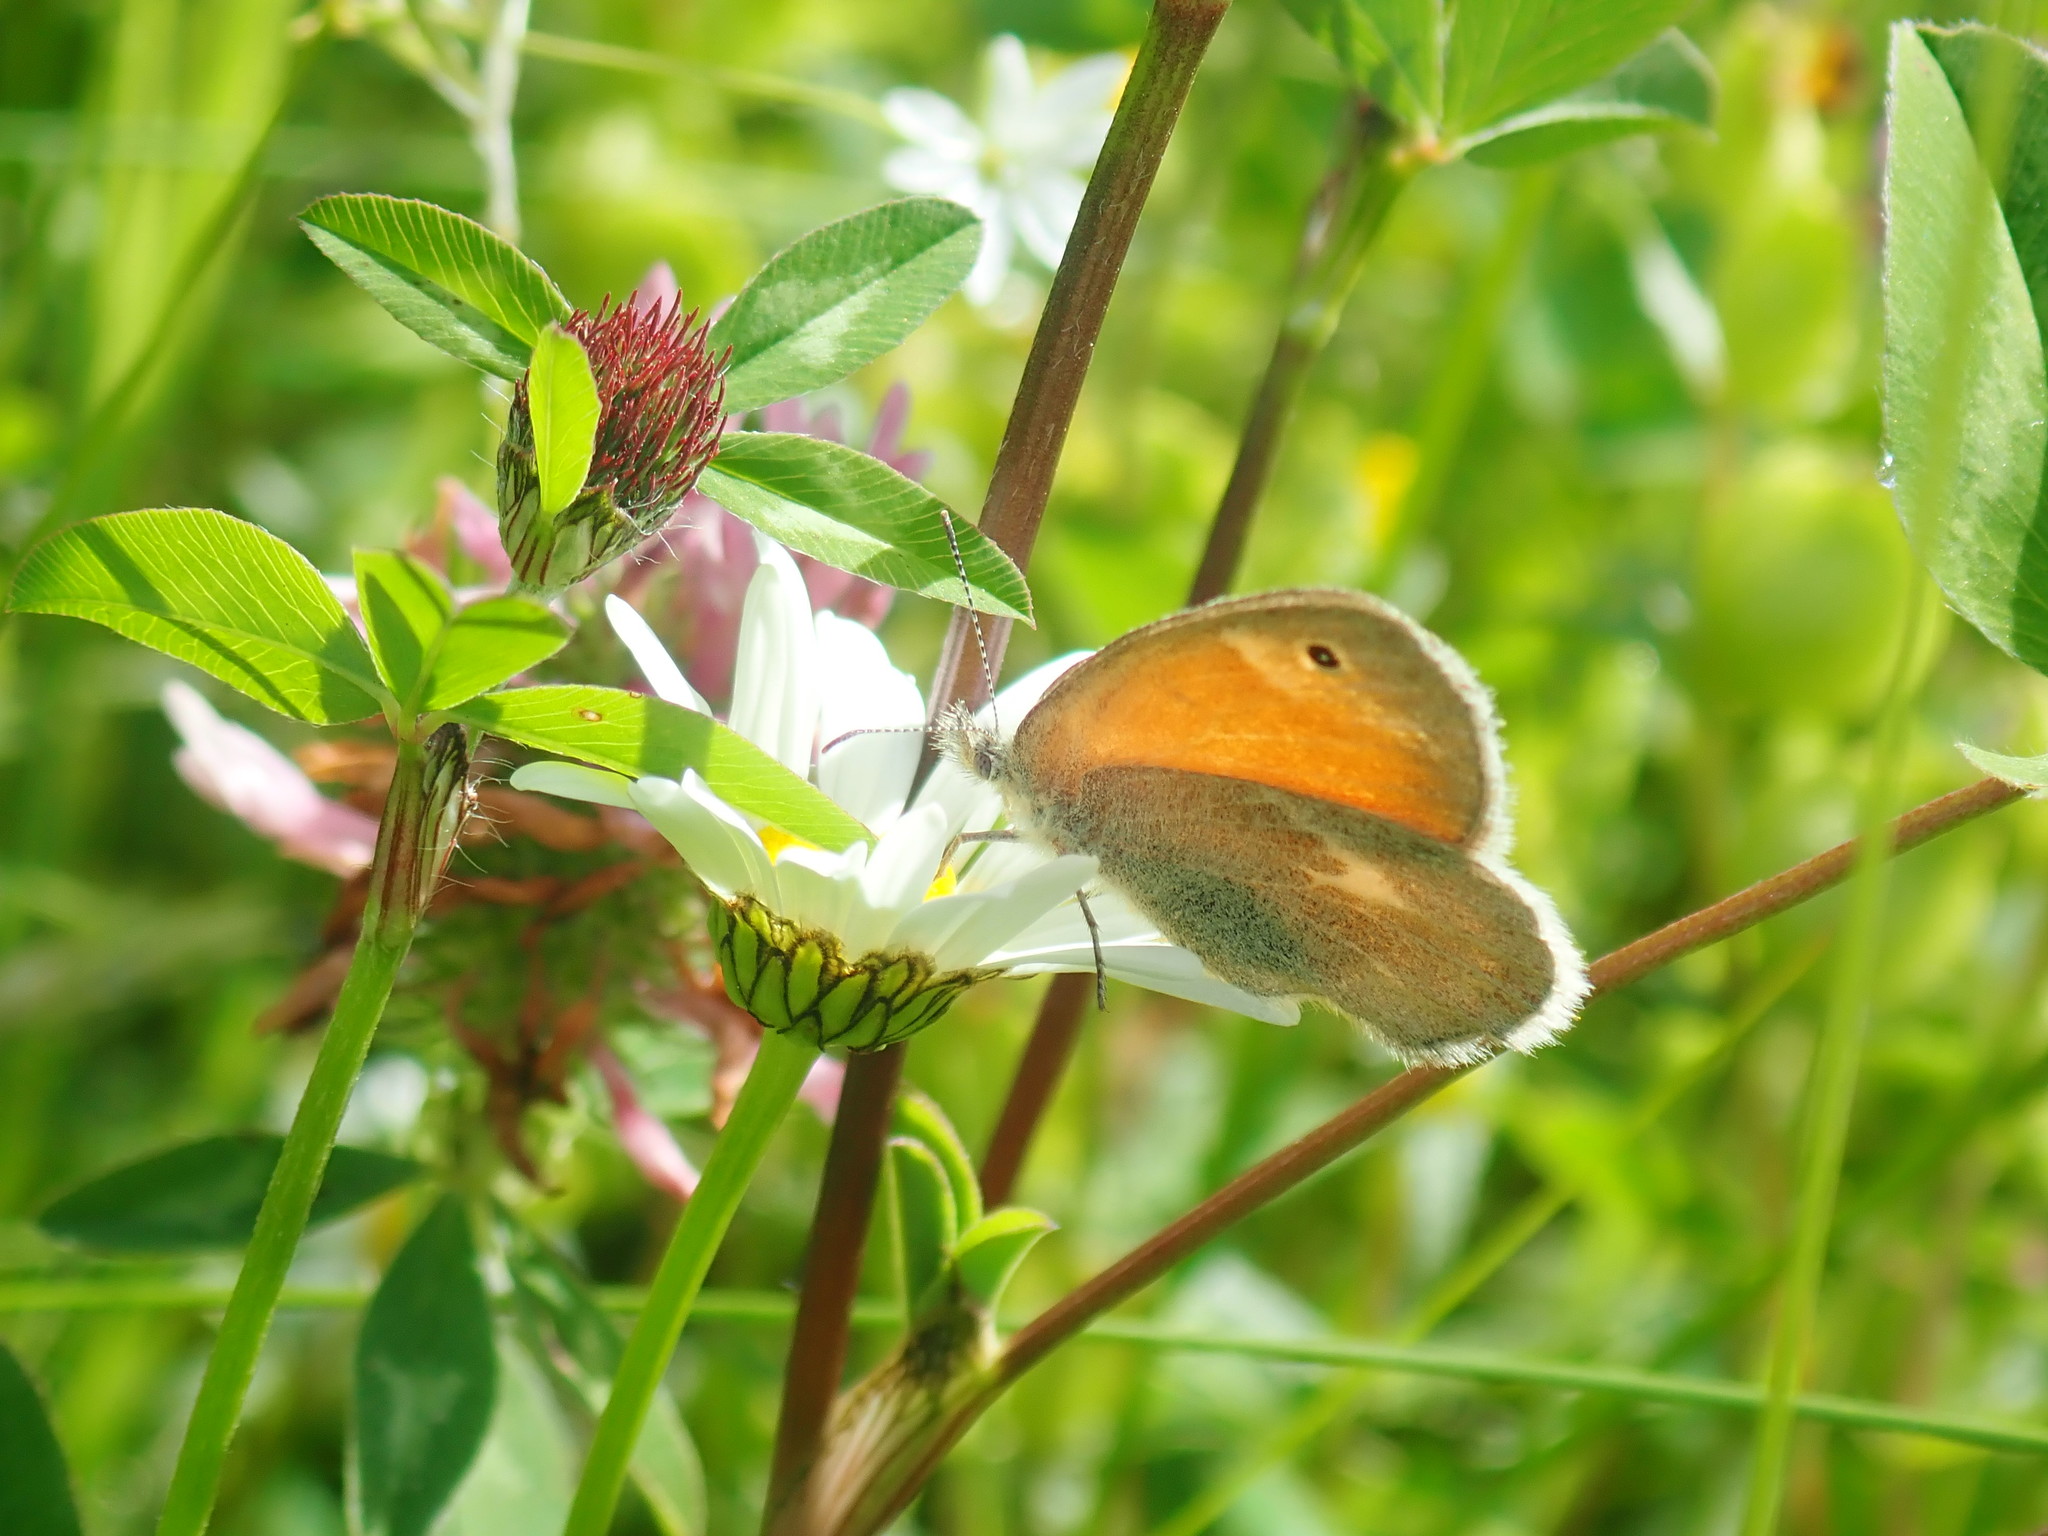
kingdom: Animalia
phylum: Arthropoda
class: Insecta
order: Lepidoptera
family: Nymphalidae
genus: Coenonympha
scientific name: Coenonympha california
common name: Common ringlet
